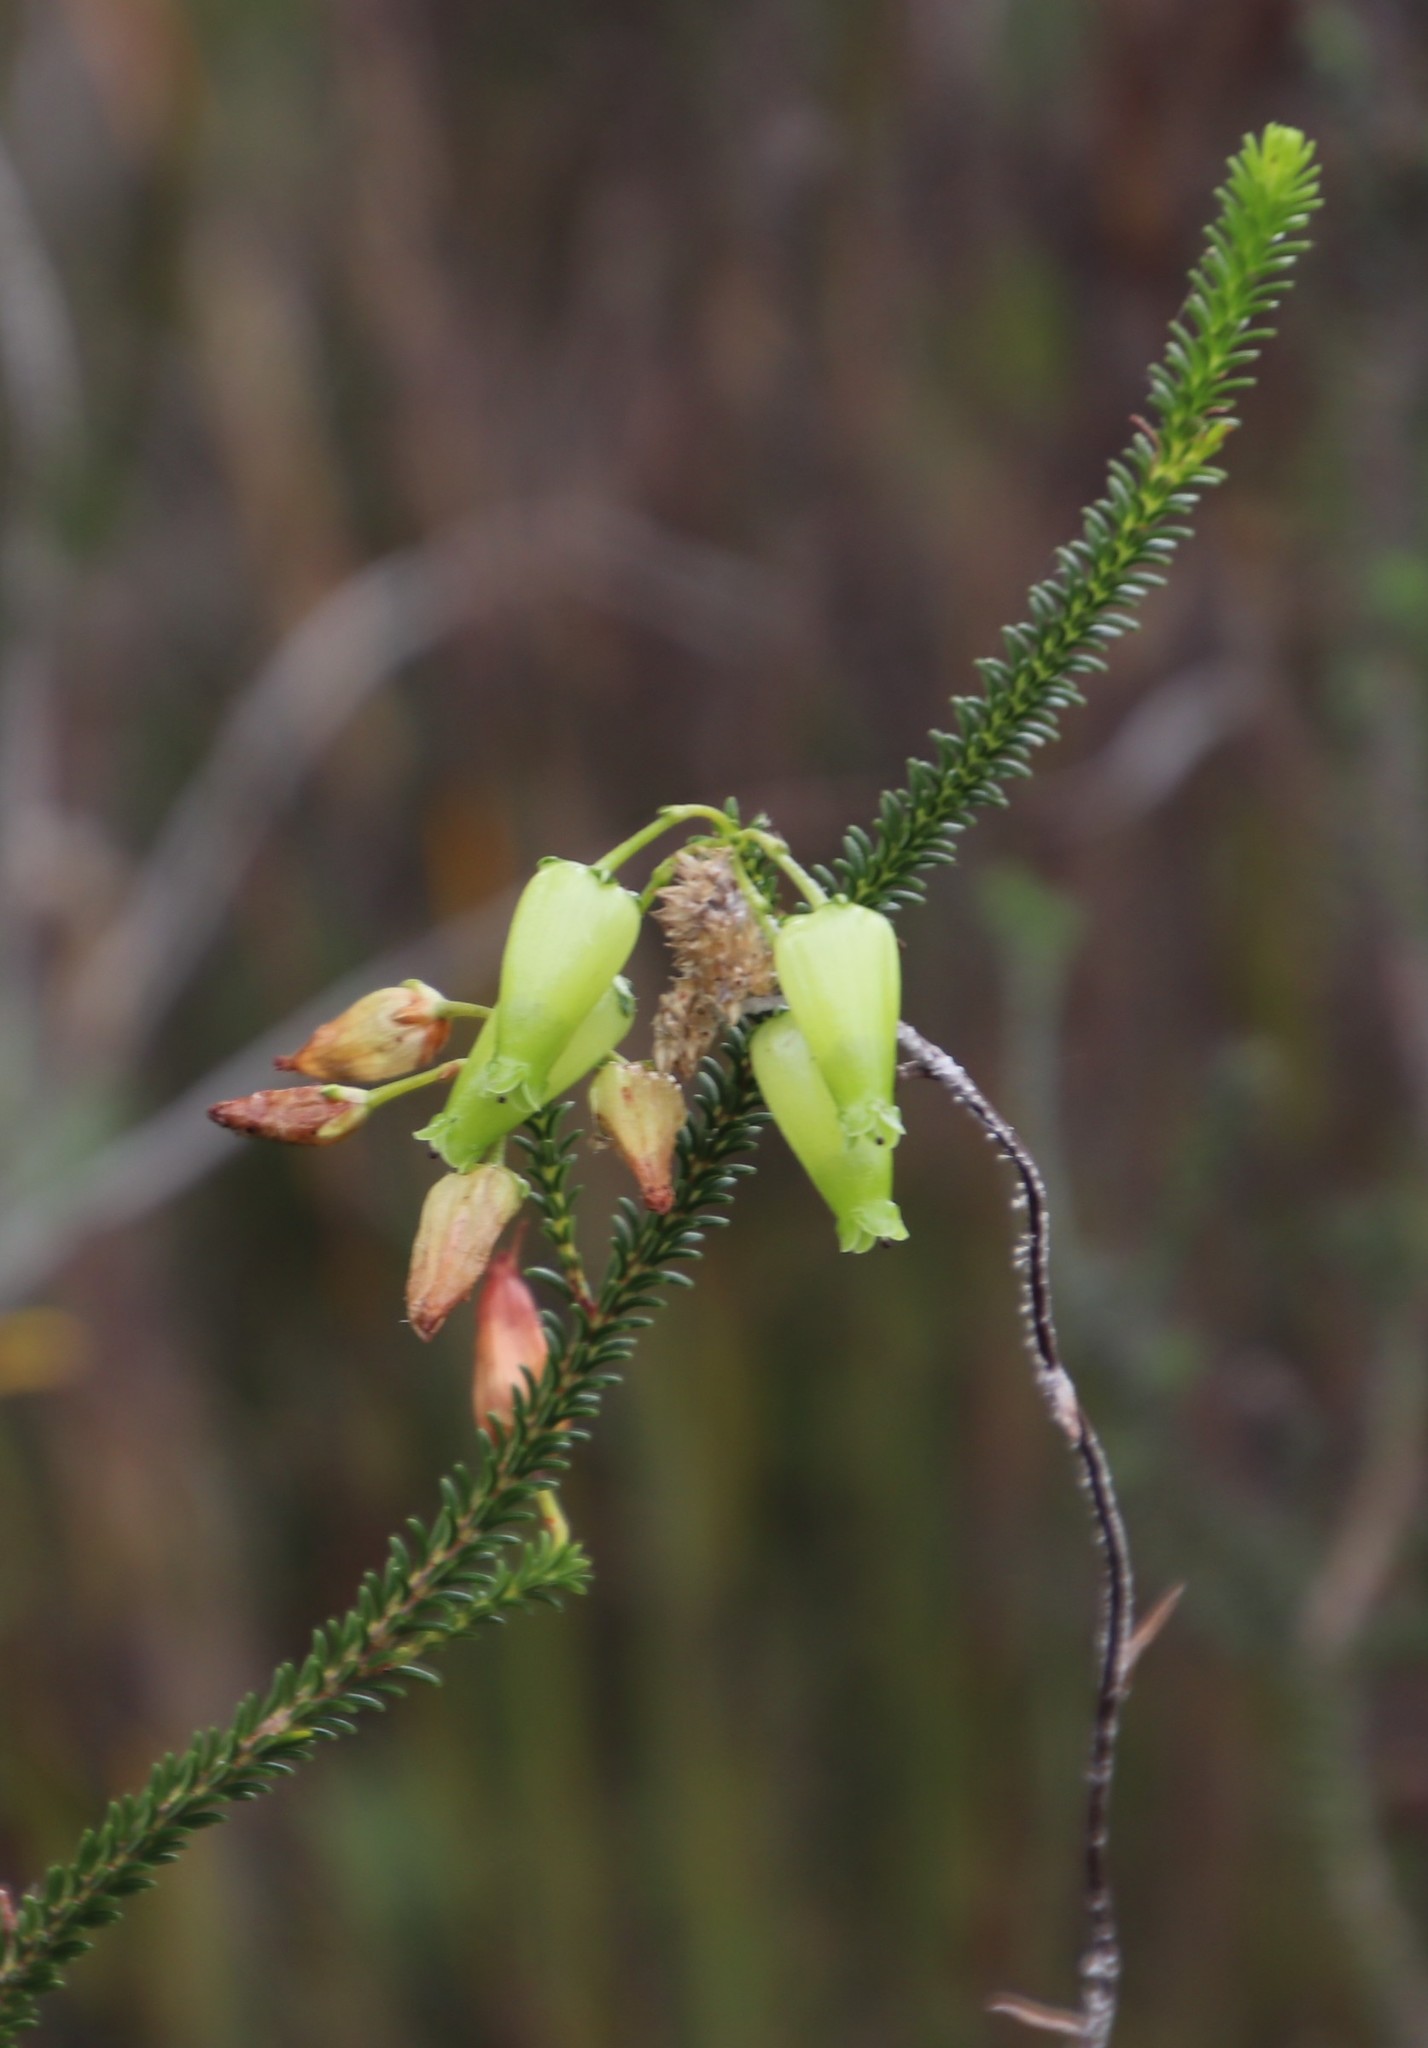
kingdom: Plantae
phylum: Tracheophyta
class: Magnoliopsida
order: Ericales
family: Ericaceae
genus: Erica
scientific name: Erica urna-viridis
